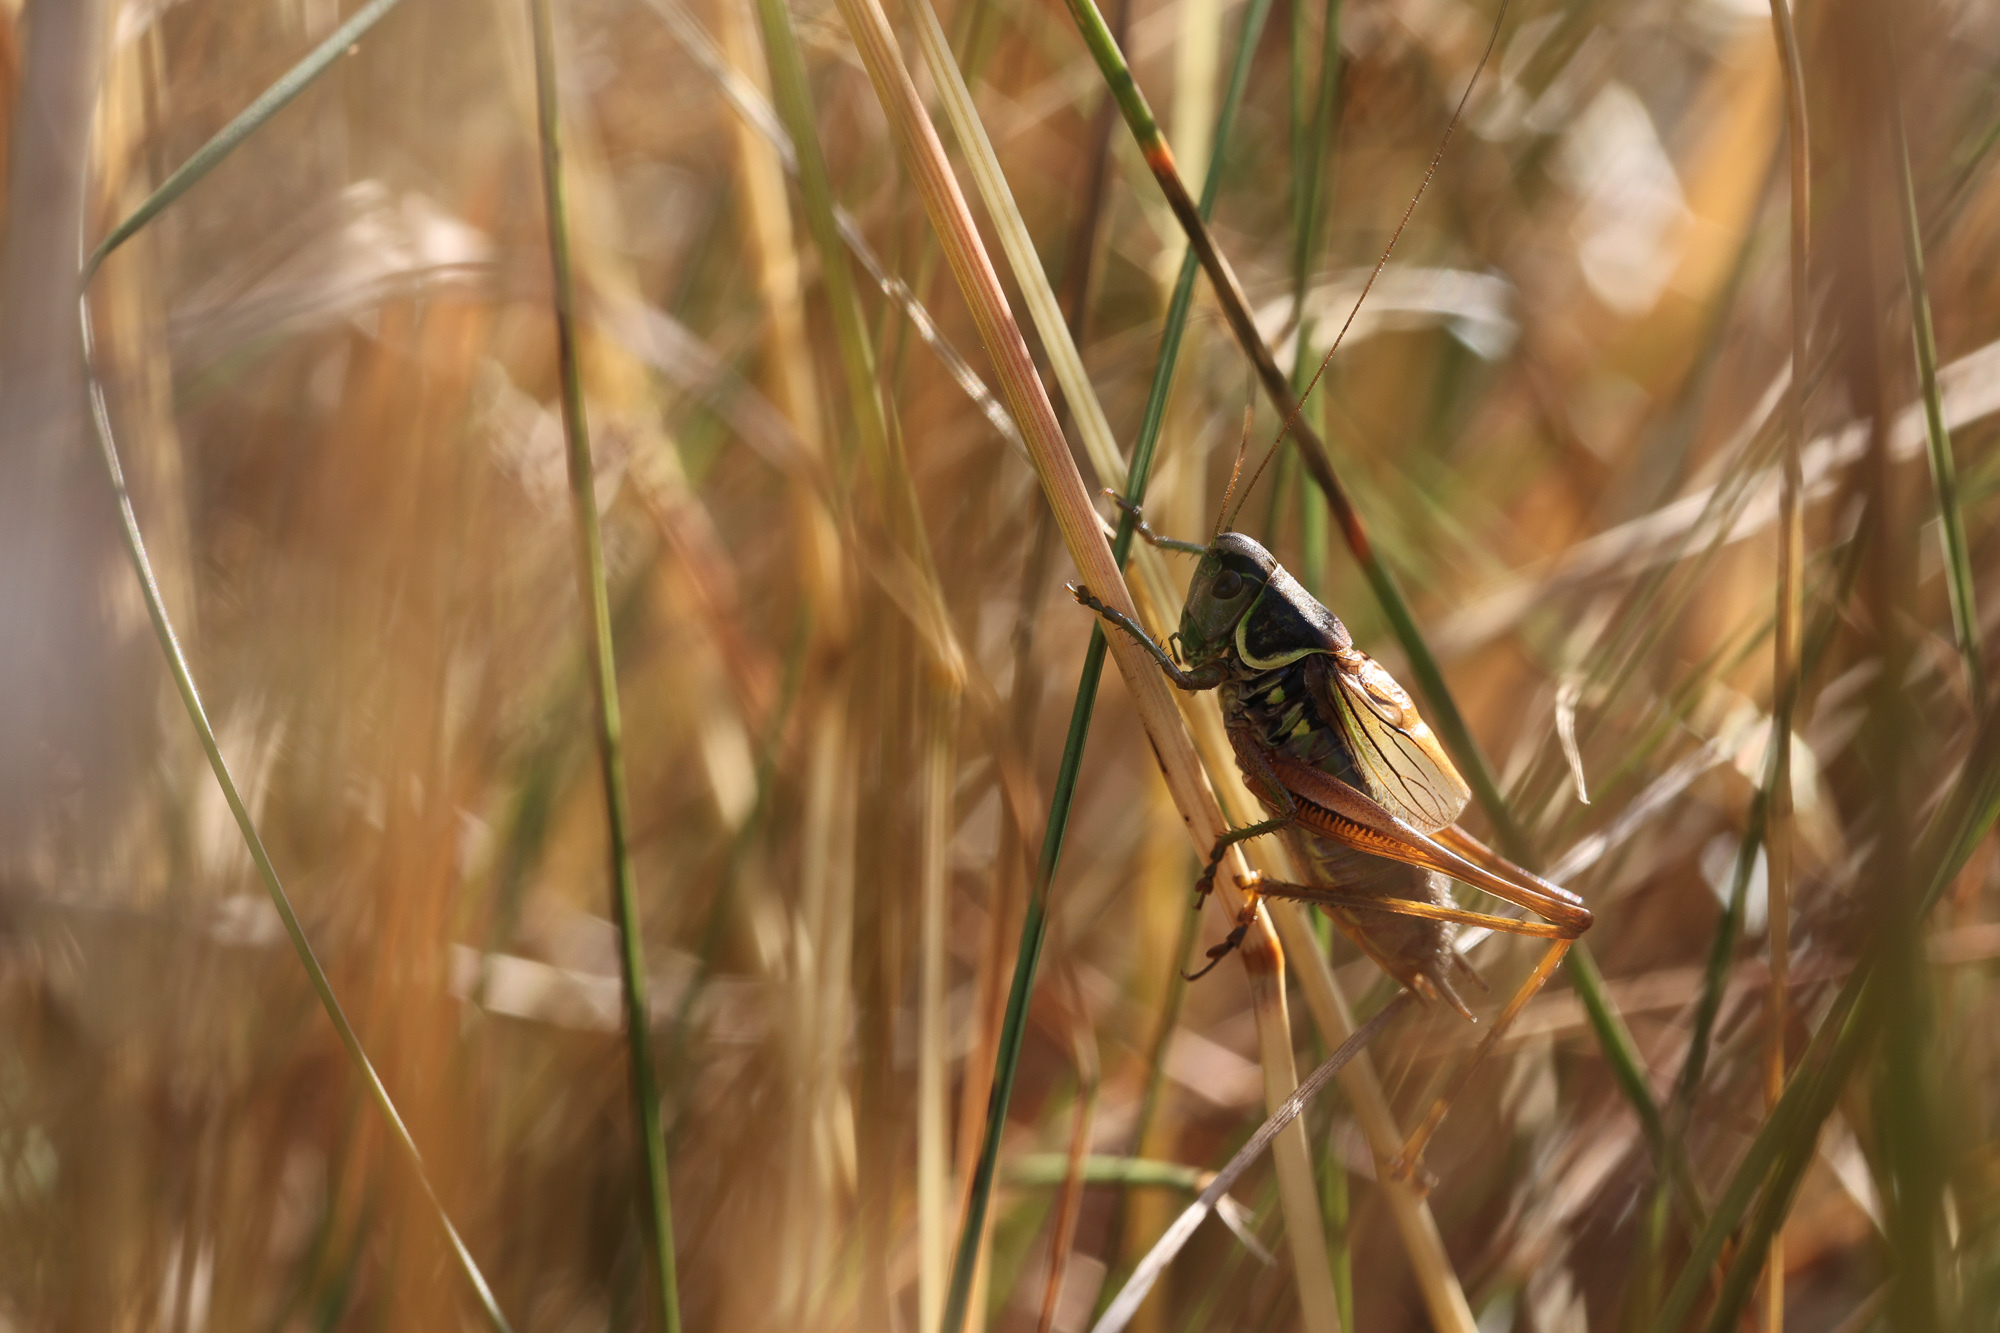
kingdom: Animalia
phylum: Arthropoda
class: Insecta
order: Orthoptera
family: Tettigoniidae
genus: Roeseliana
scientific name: Roeseliana roeselii
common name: Roesel's bush cricket
